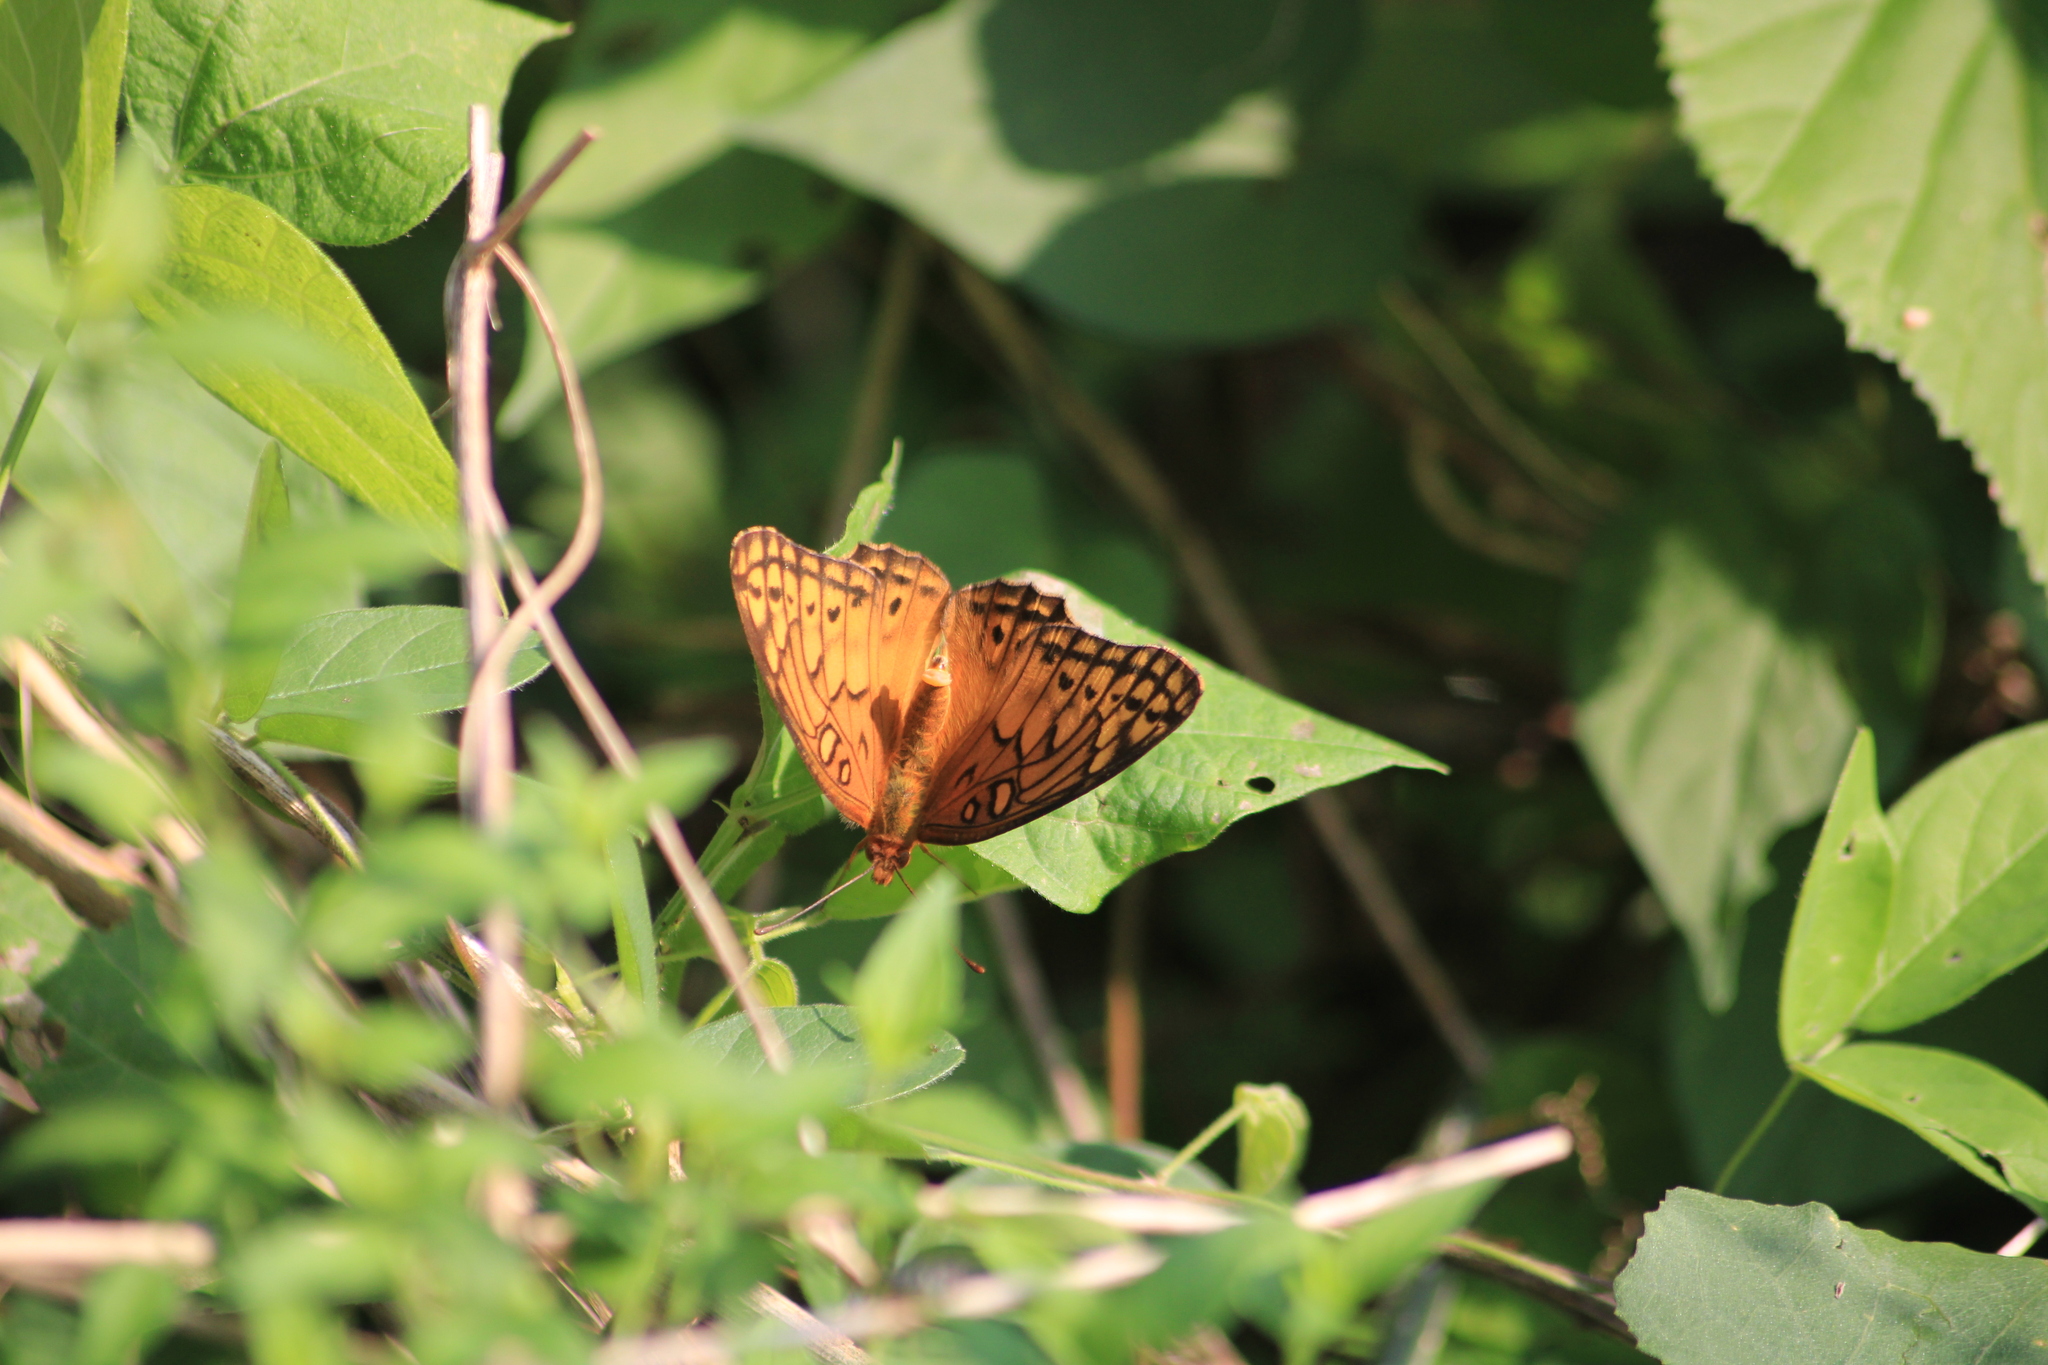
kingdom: Animalia
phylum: Arthropoda
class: Insecta
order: Lepidoptera
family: Nymphalidae
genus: Euptoieta
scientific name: Euptoieta hegesia
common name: Mexican fritillary
